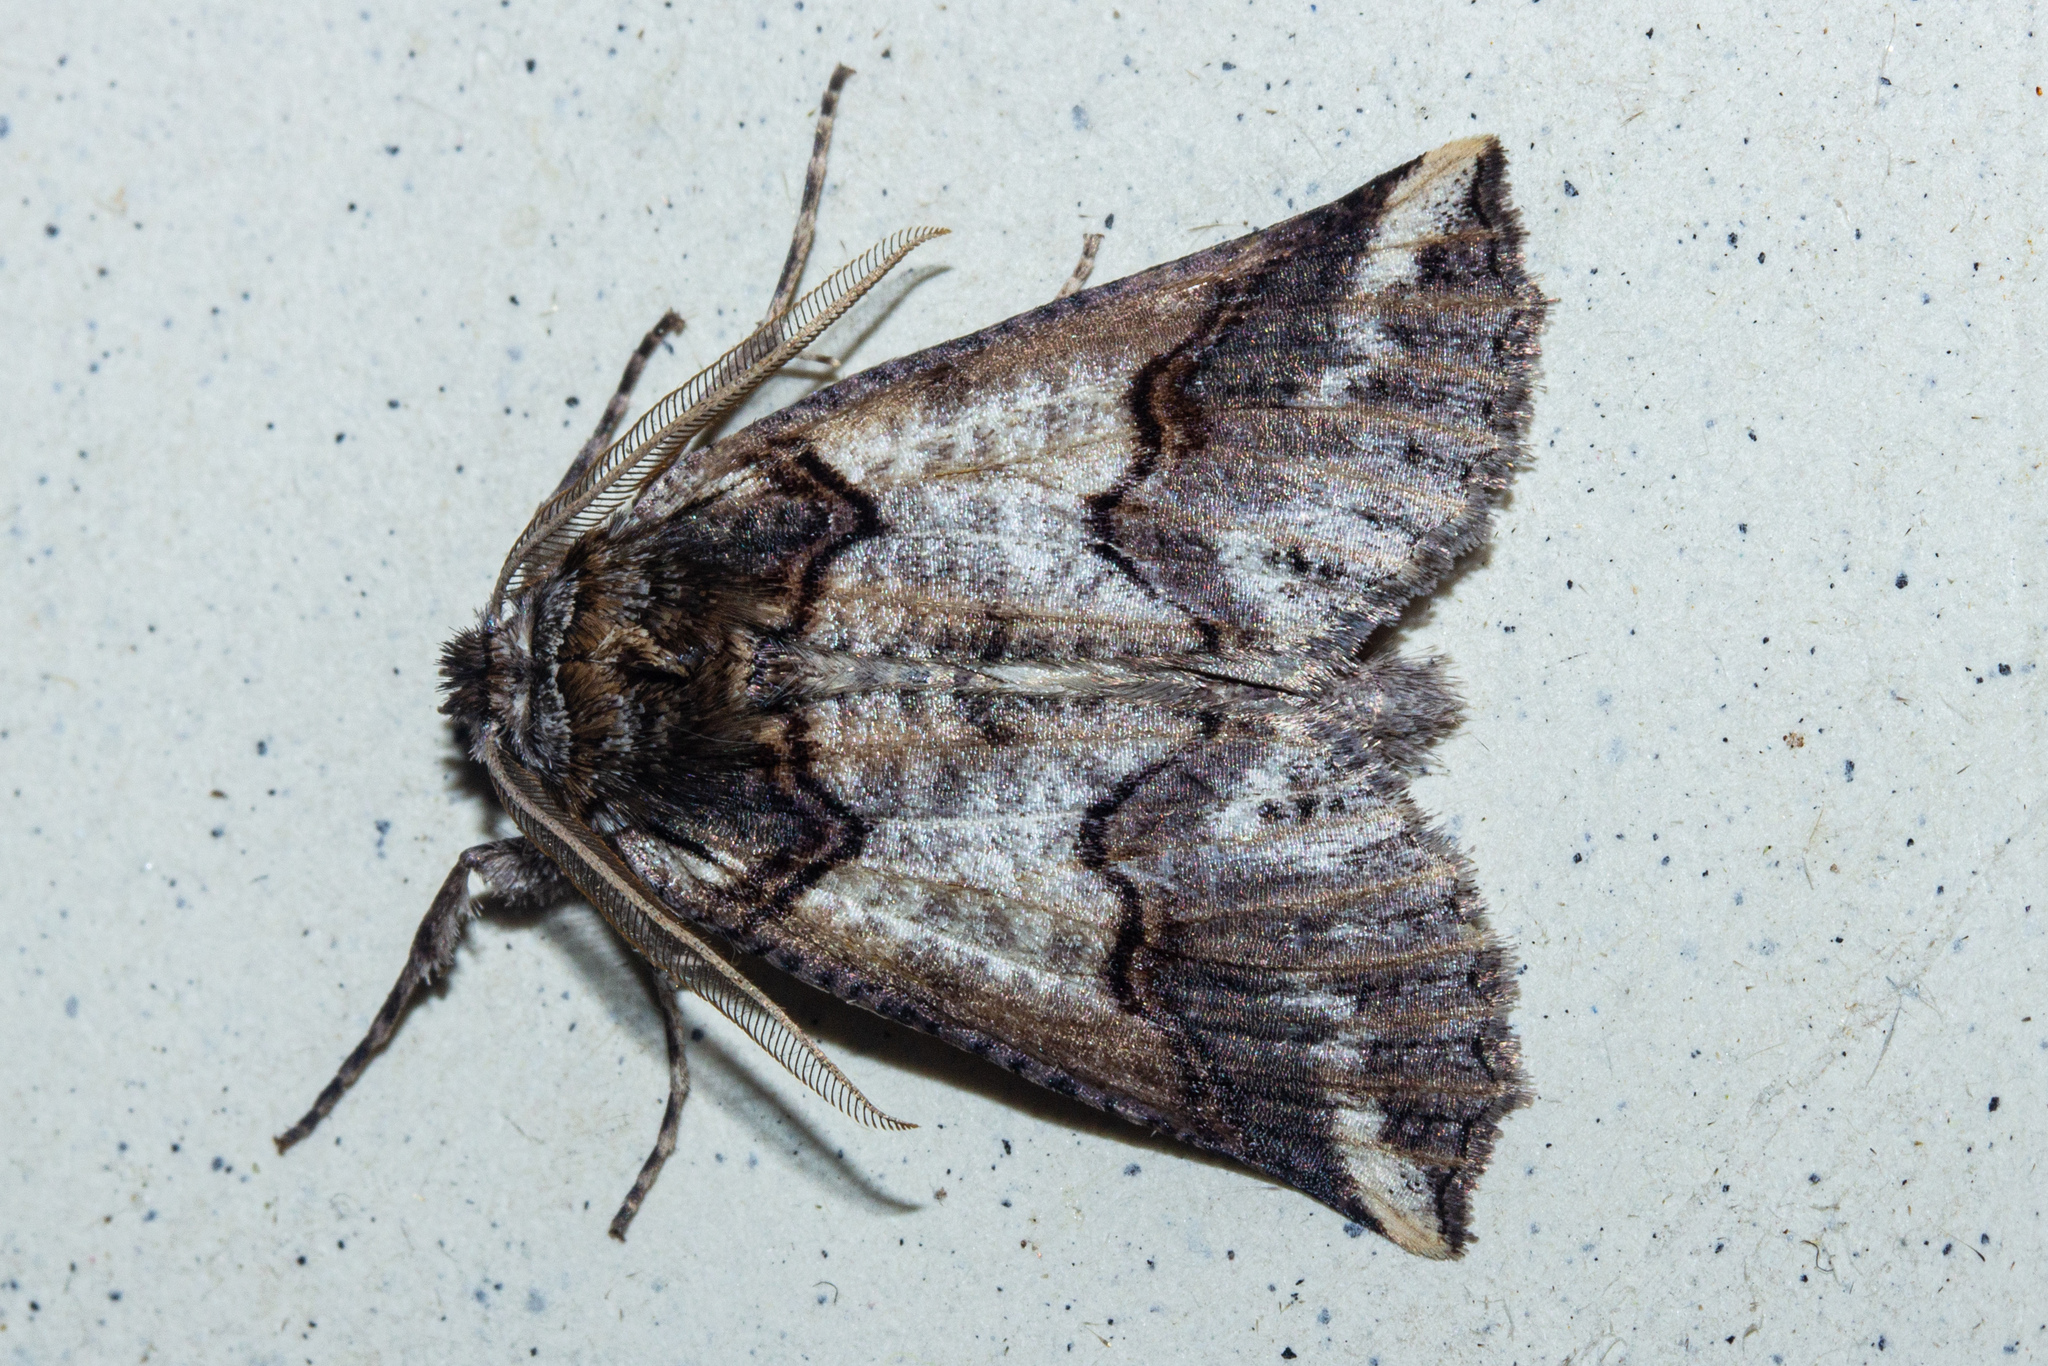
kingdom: Animalia
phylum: Arthropoda
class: Insecta
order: Lepidoptera
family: Geometridae
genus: Declana
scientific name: Declana
